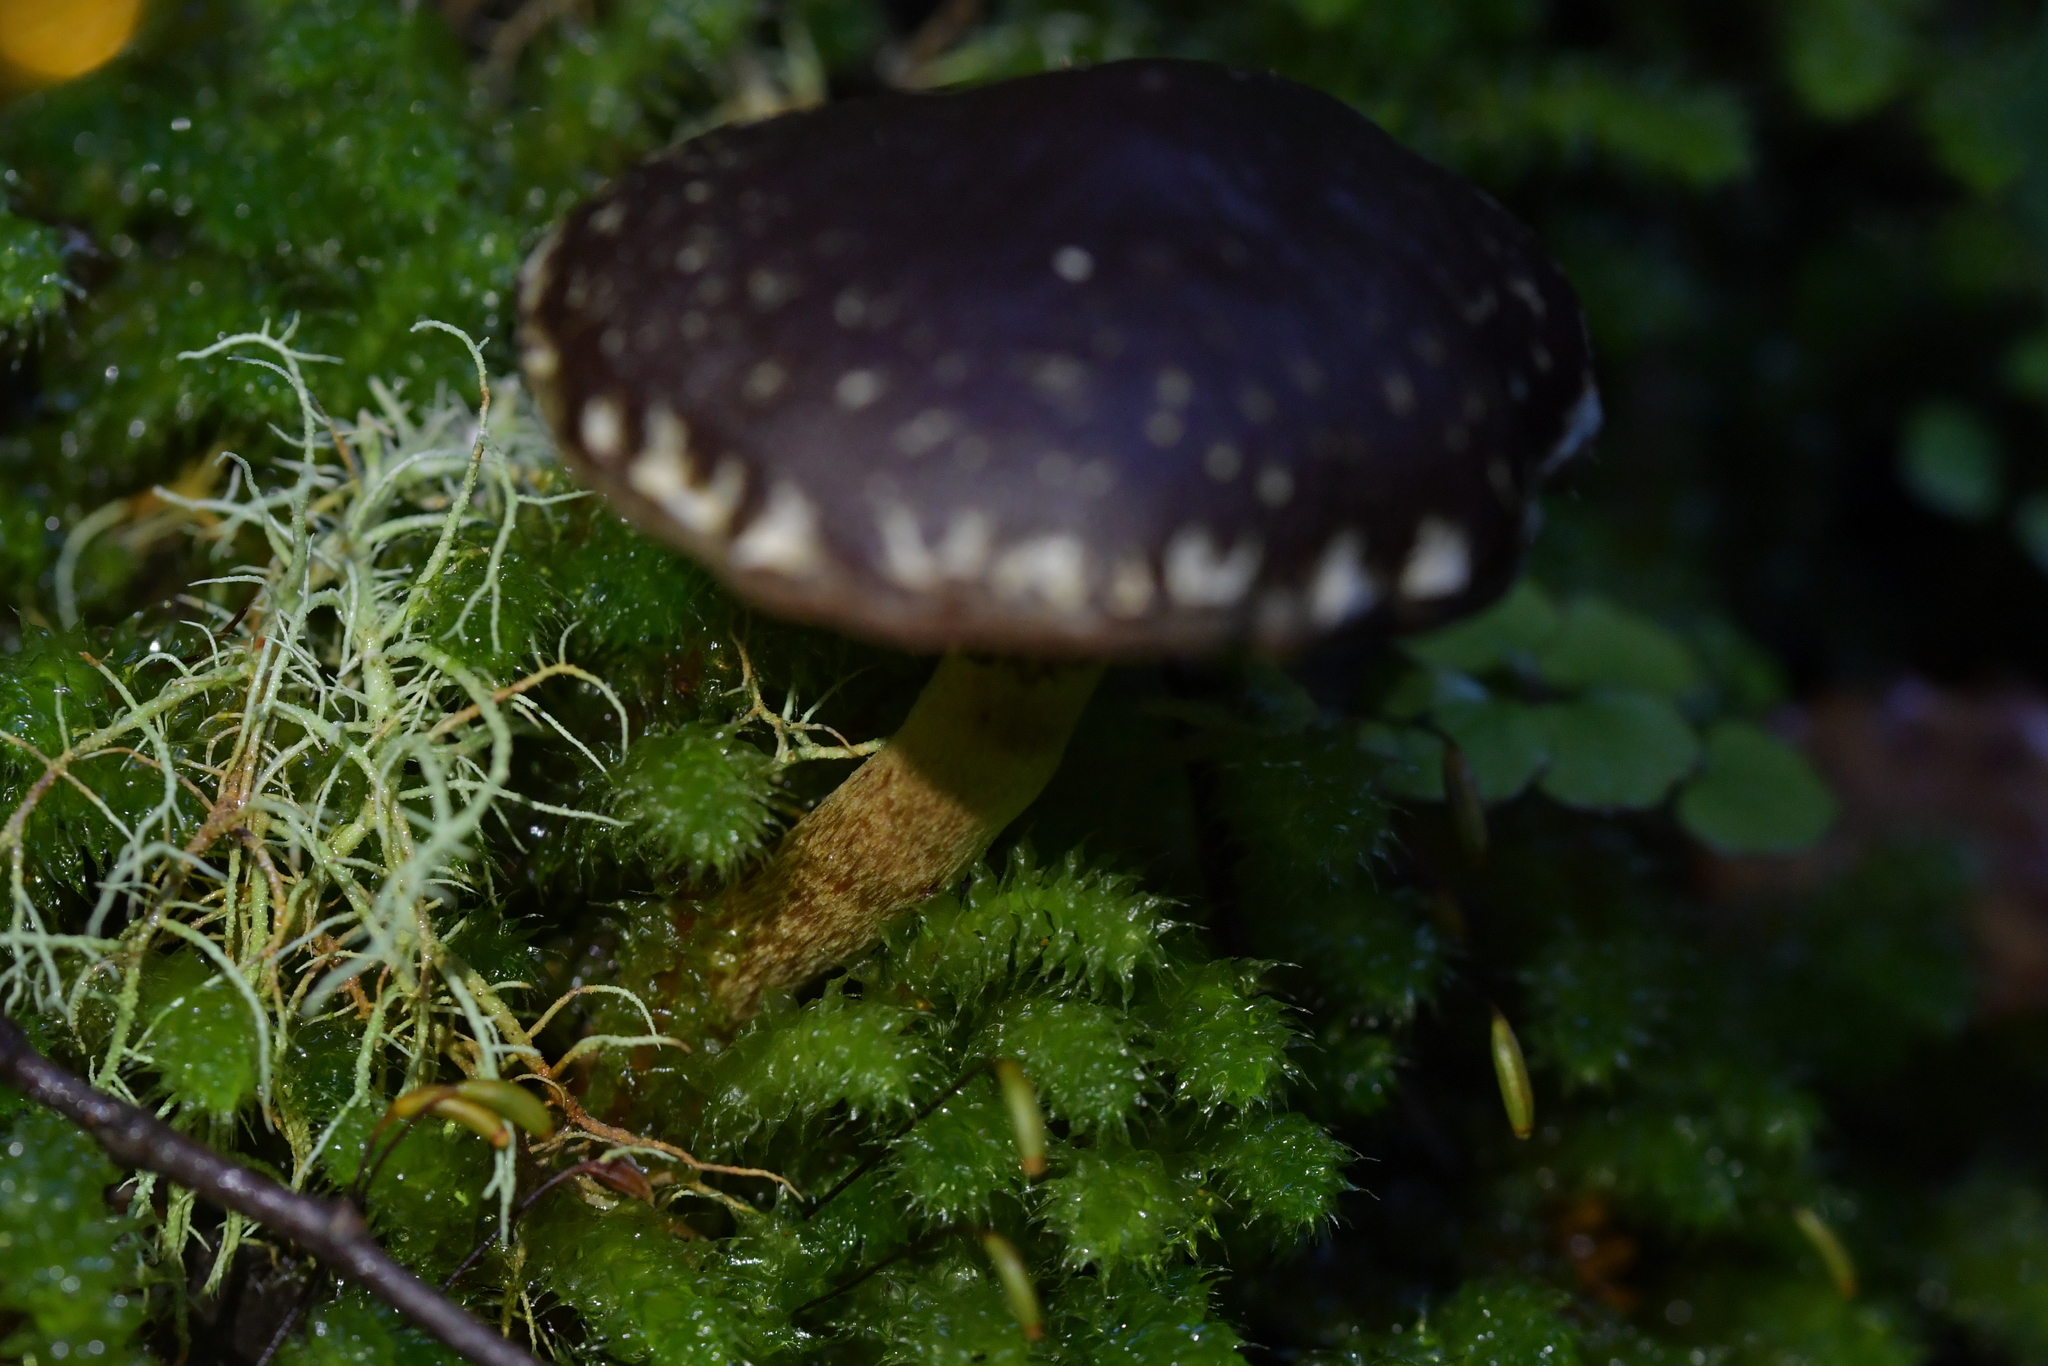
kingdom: Fungi
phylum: Basidiomycota
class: Agaricomycetes
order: Agaricales
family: Strophariaceae
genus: Hypholoma
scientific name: Hypholoma brunneum
